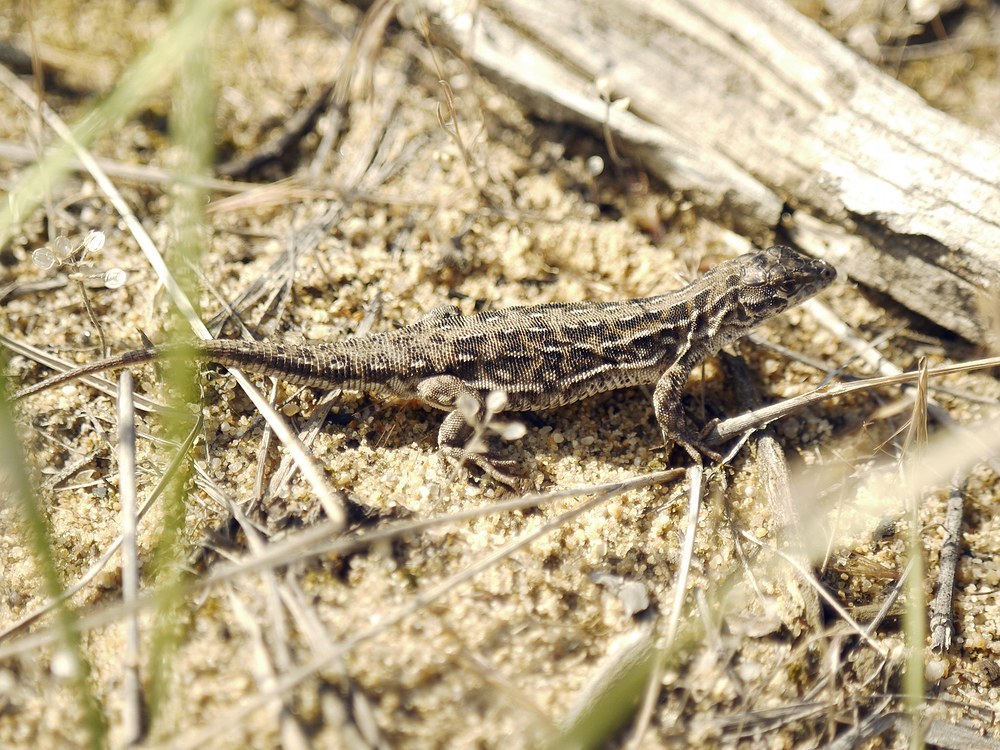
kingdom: Animalia
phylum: Chordata
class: Squamata
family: Lacertidae
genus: Eremias
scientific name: Eremias arguta
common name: Racerunner
